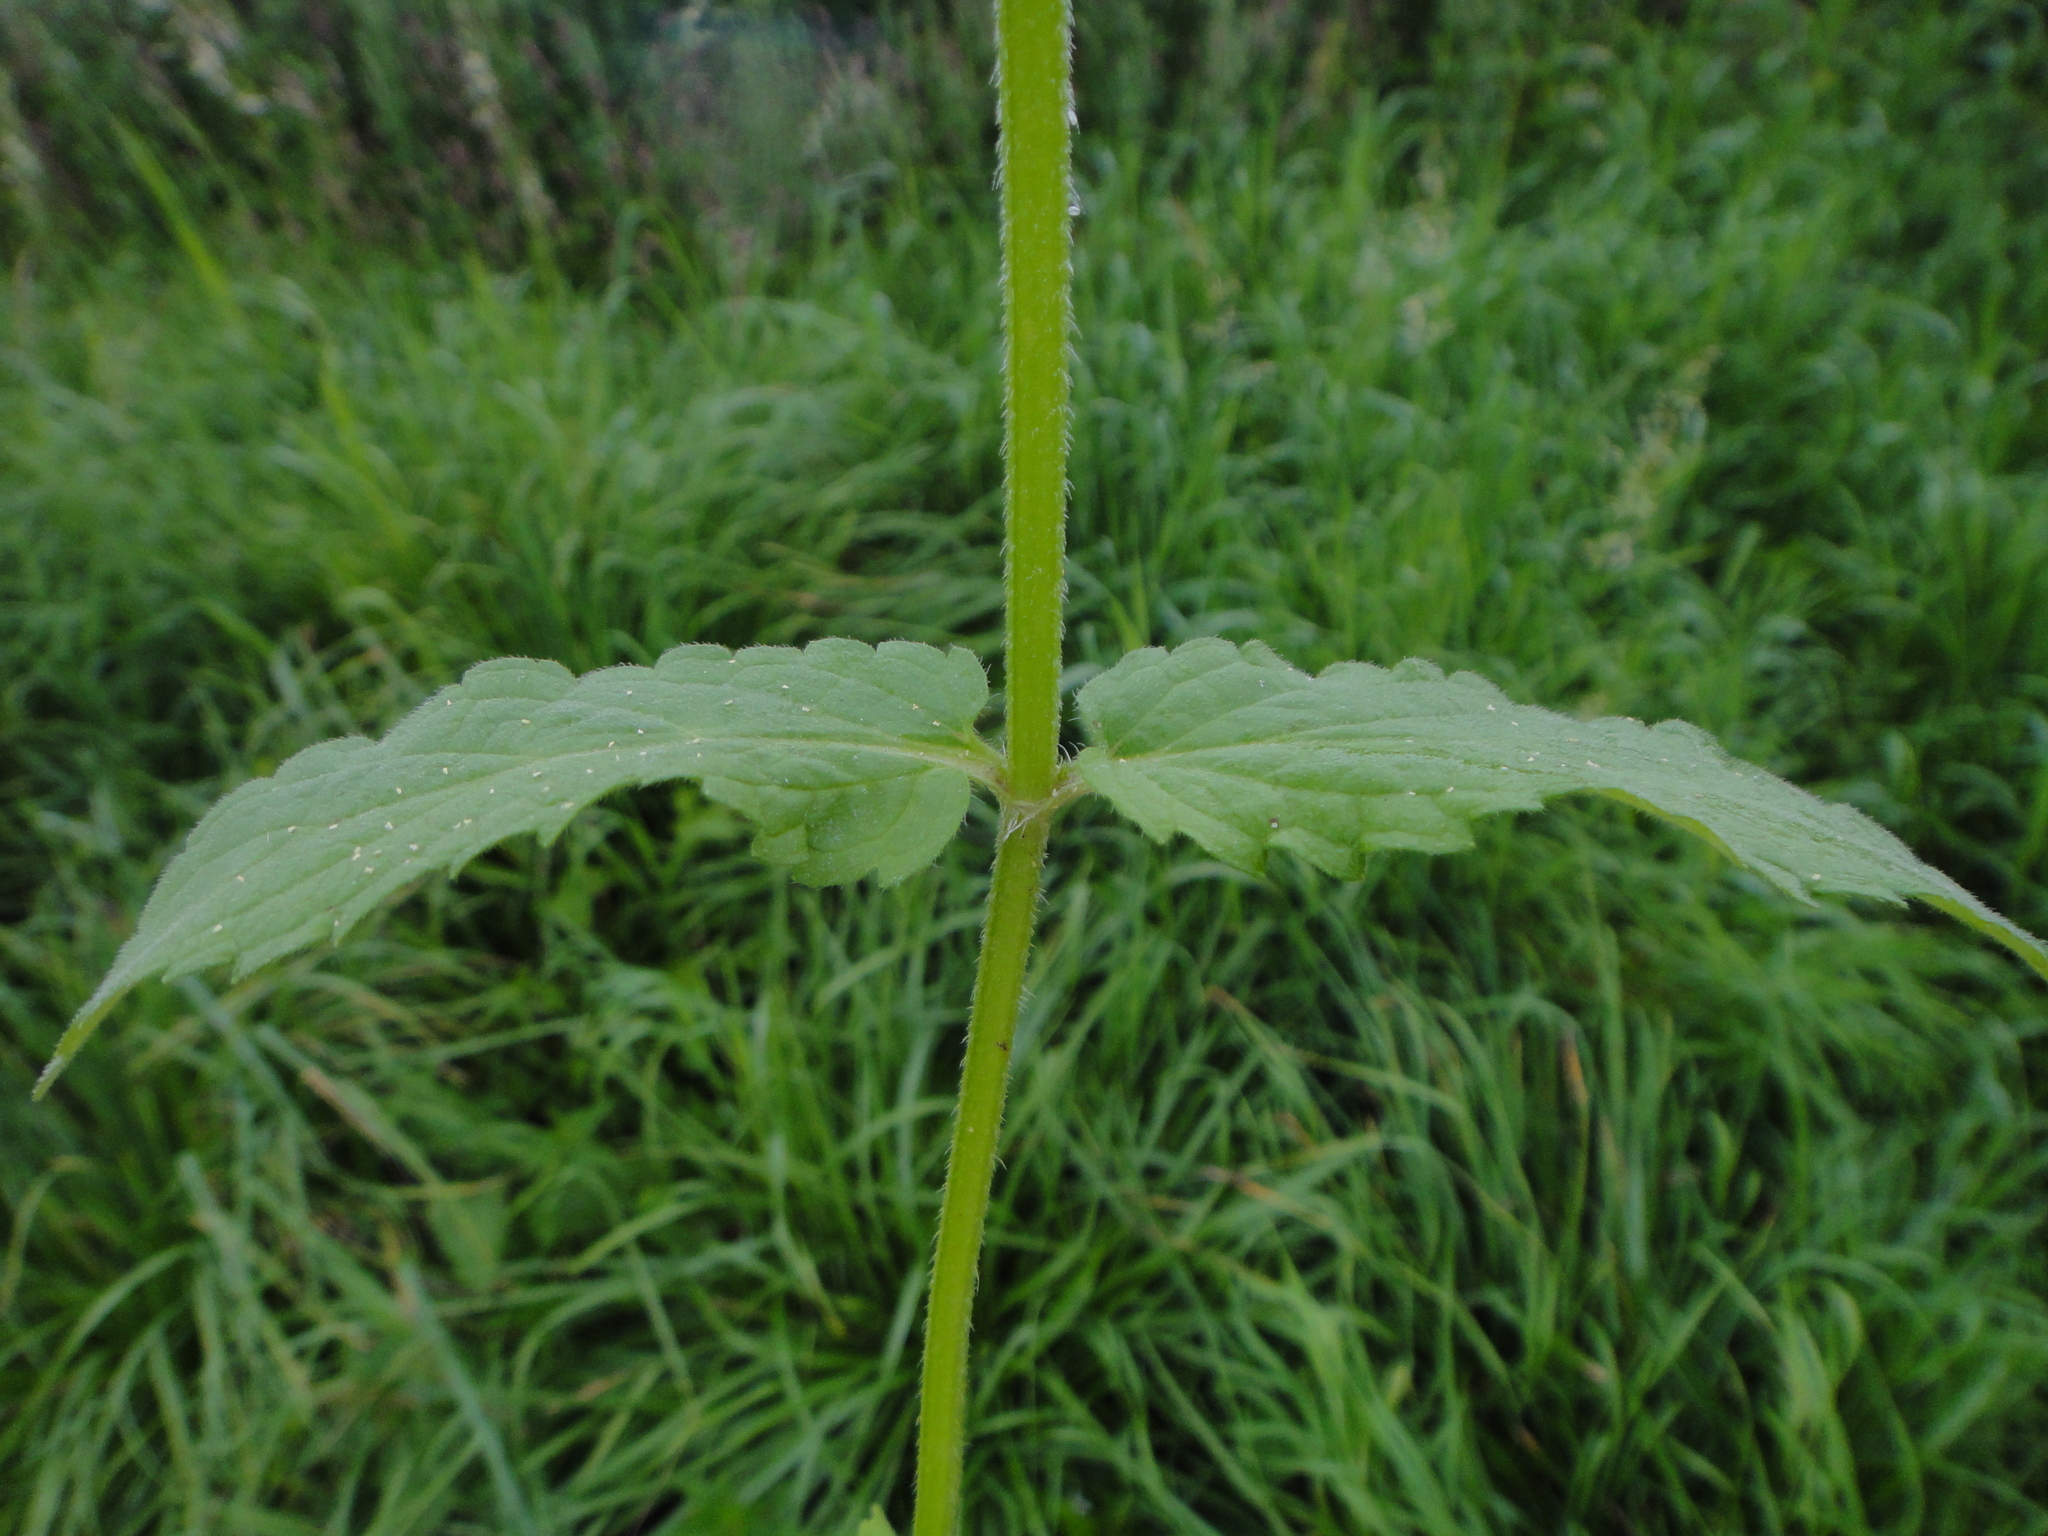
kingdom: Plantae
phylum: Tracheophyta
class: Magnoliopsida
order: Lamiales
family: Lamiaceae
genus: Stachys
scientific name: Stachys palustris
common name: Marsh woundwort
